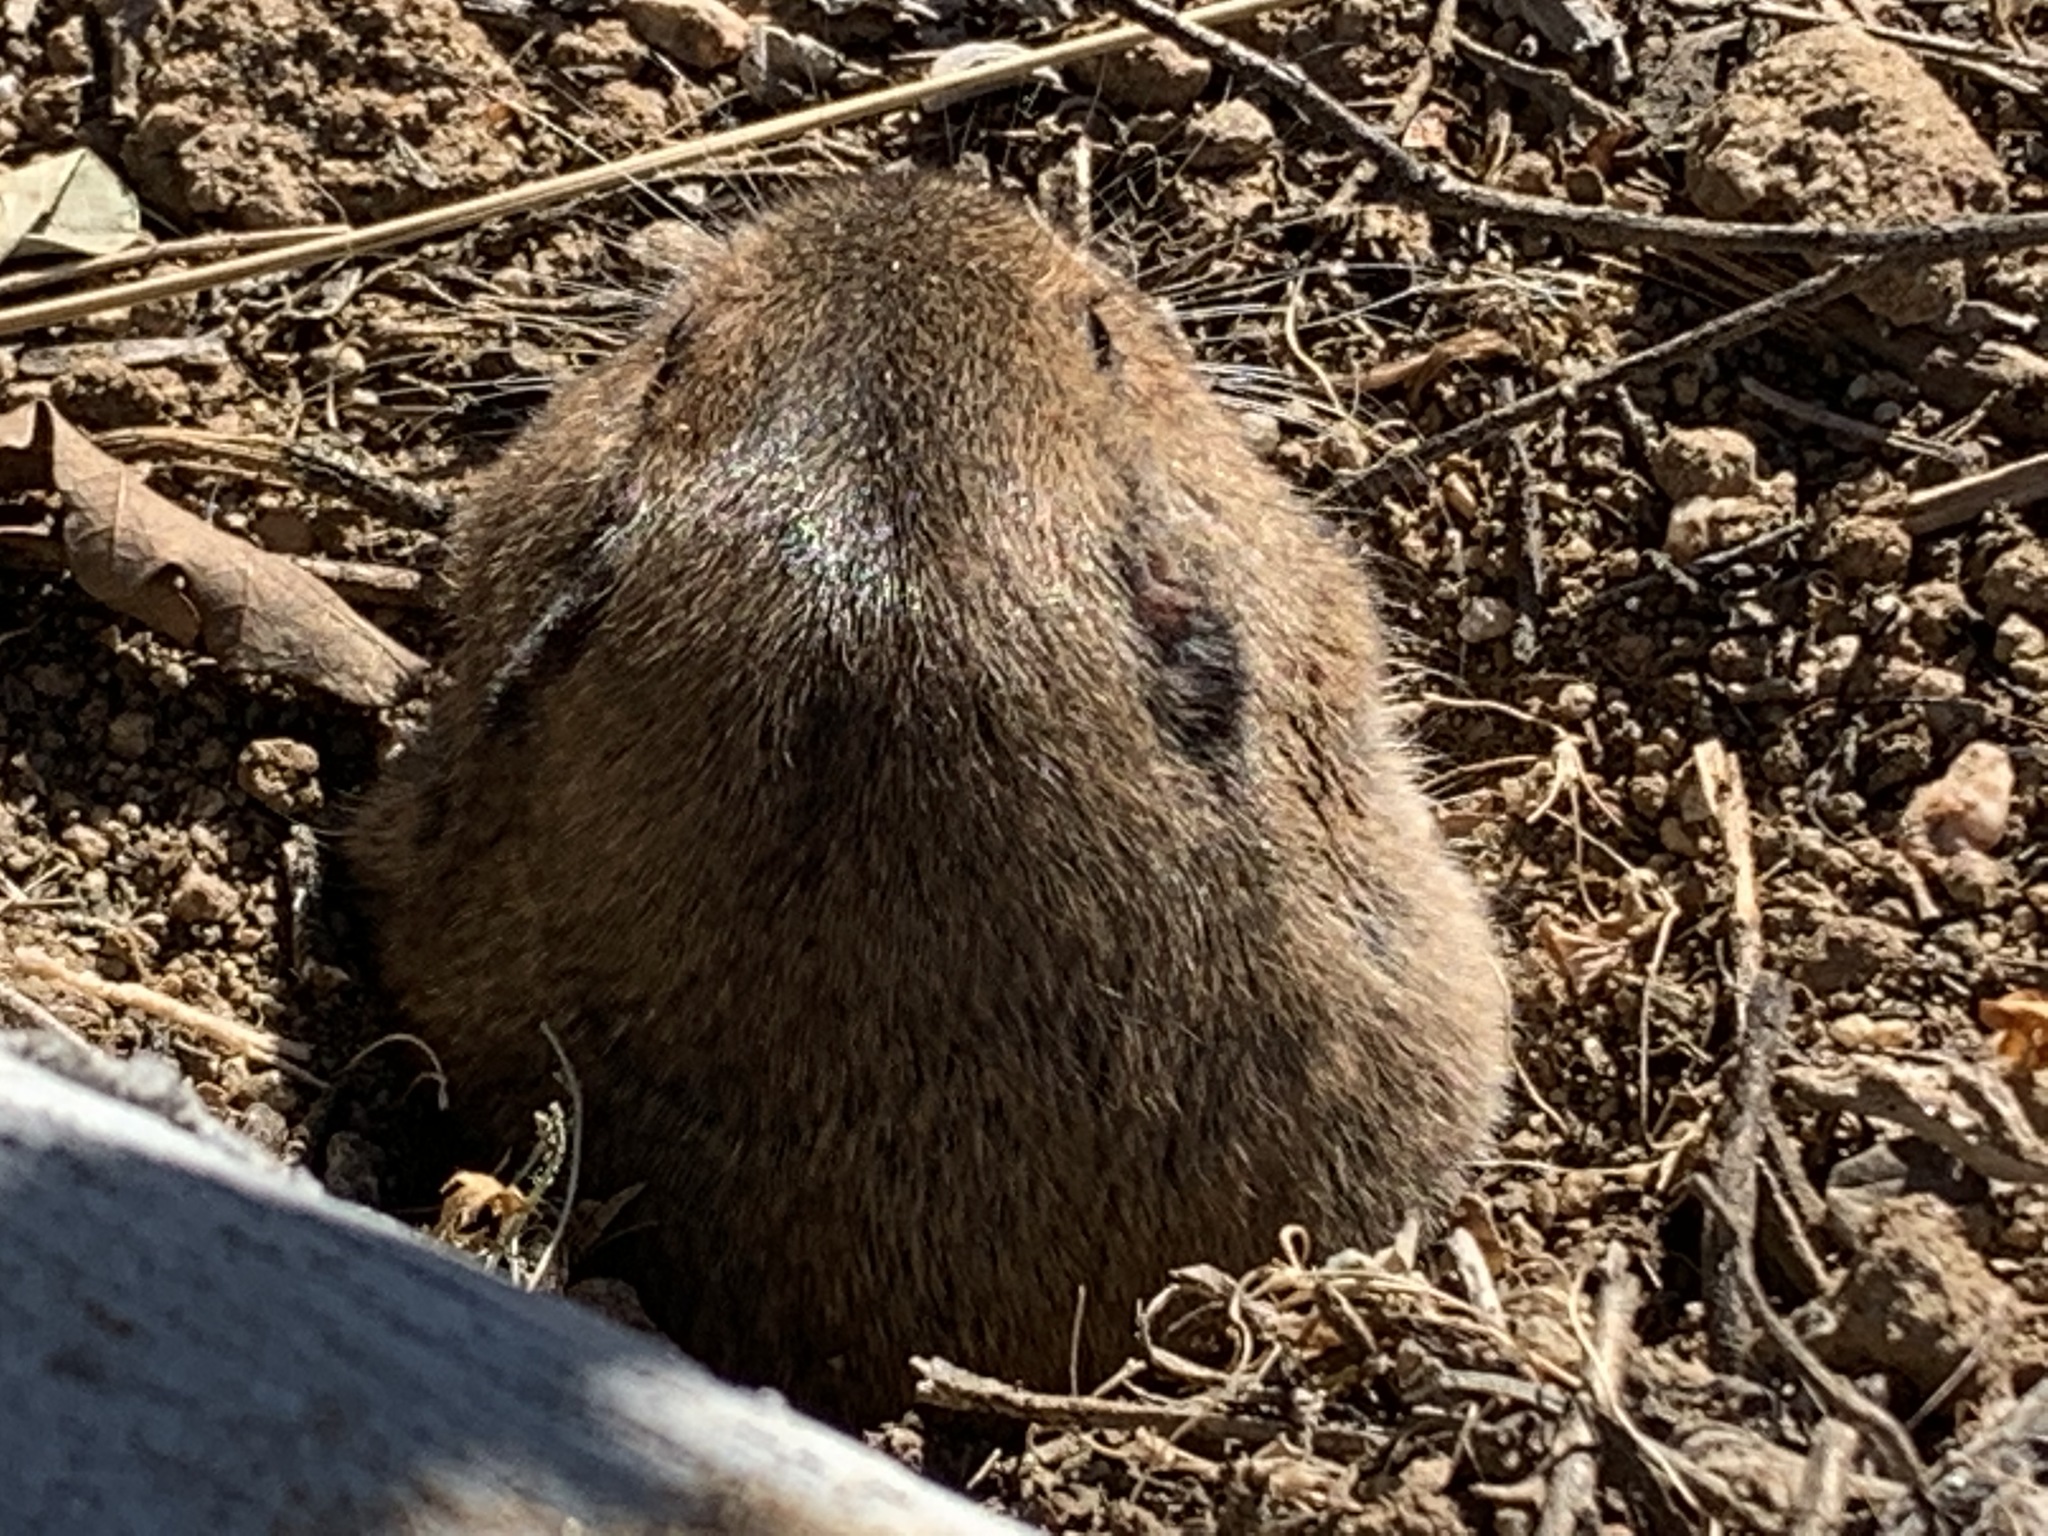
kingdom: Animalia
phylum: Chordata
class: Mammalia
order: Rodentia
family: Geomyidae
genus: Thomomys
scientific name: Thomomys bottae
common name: Botta's pocket gopher
